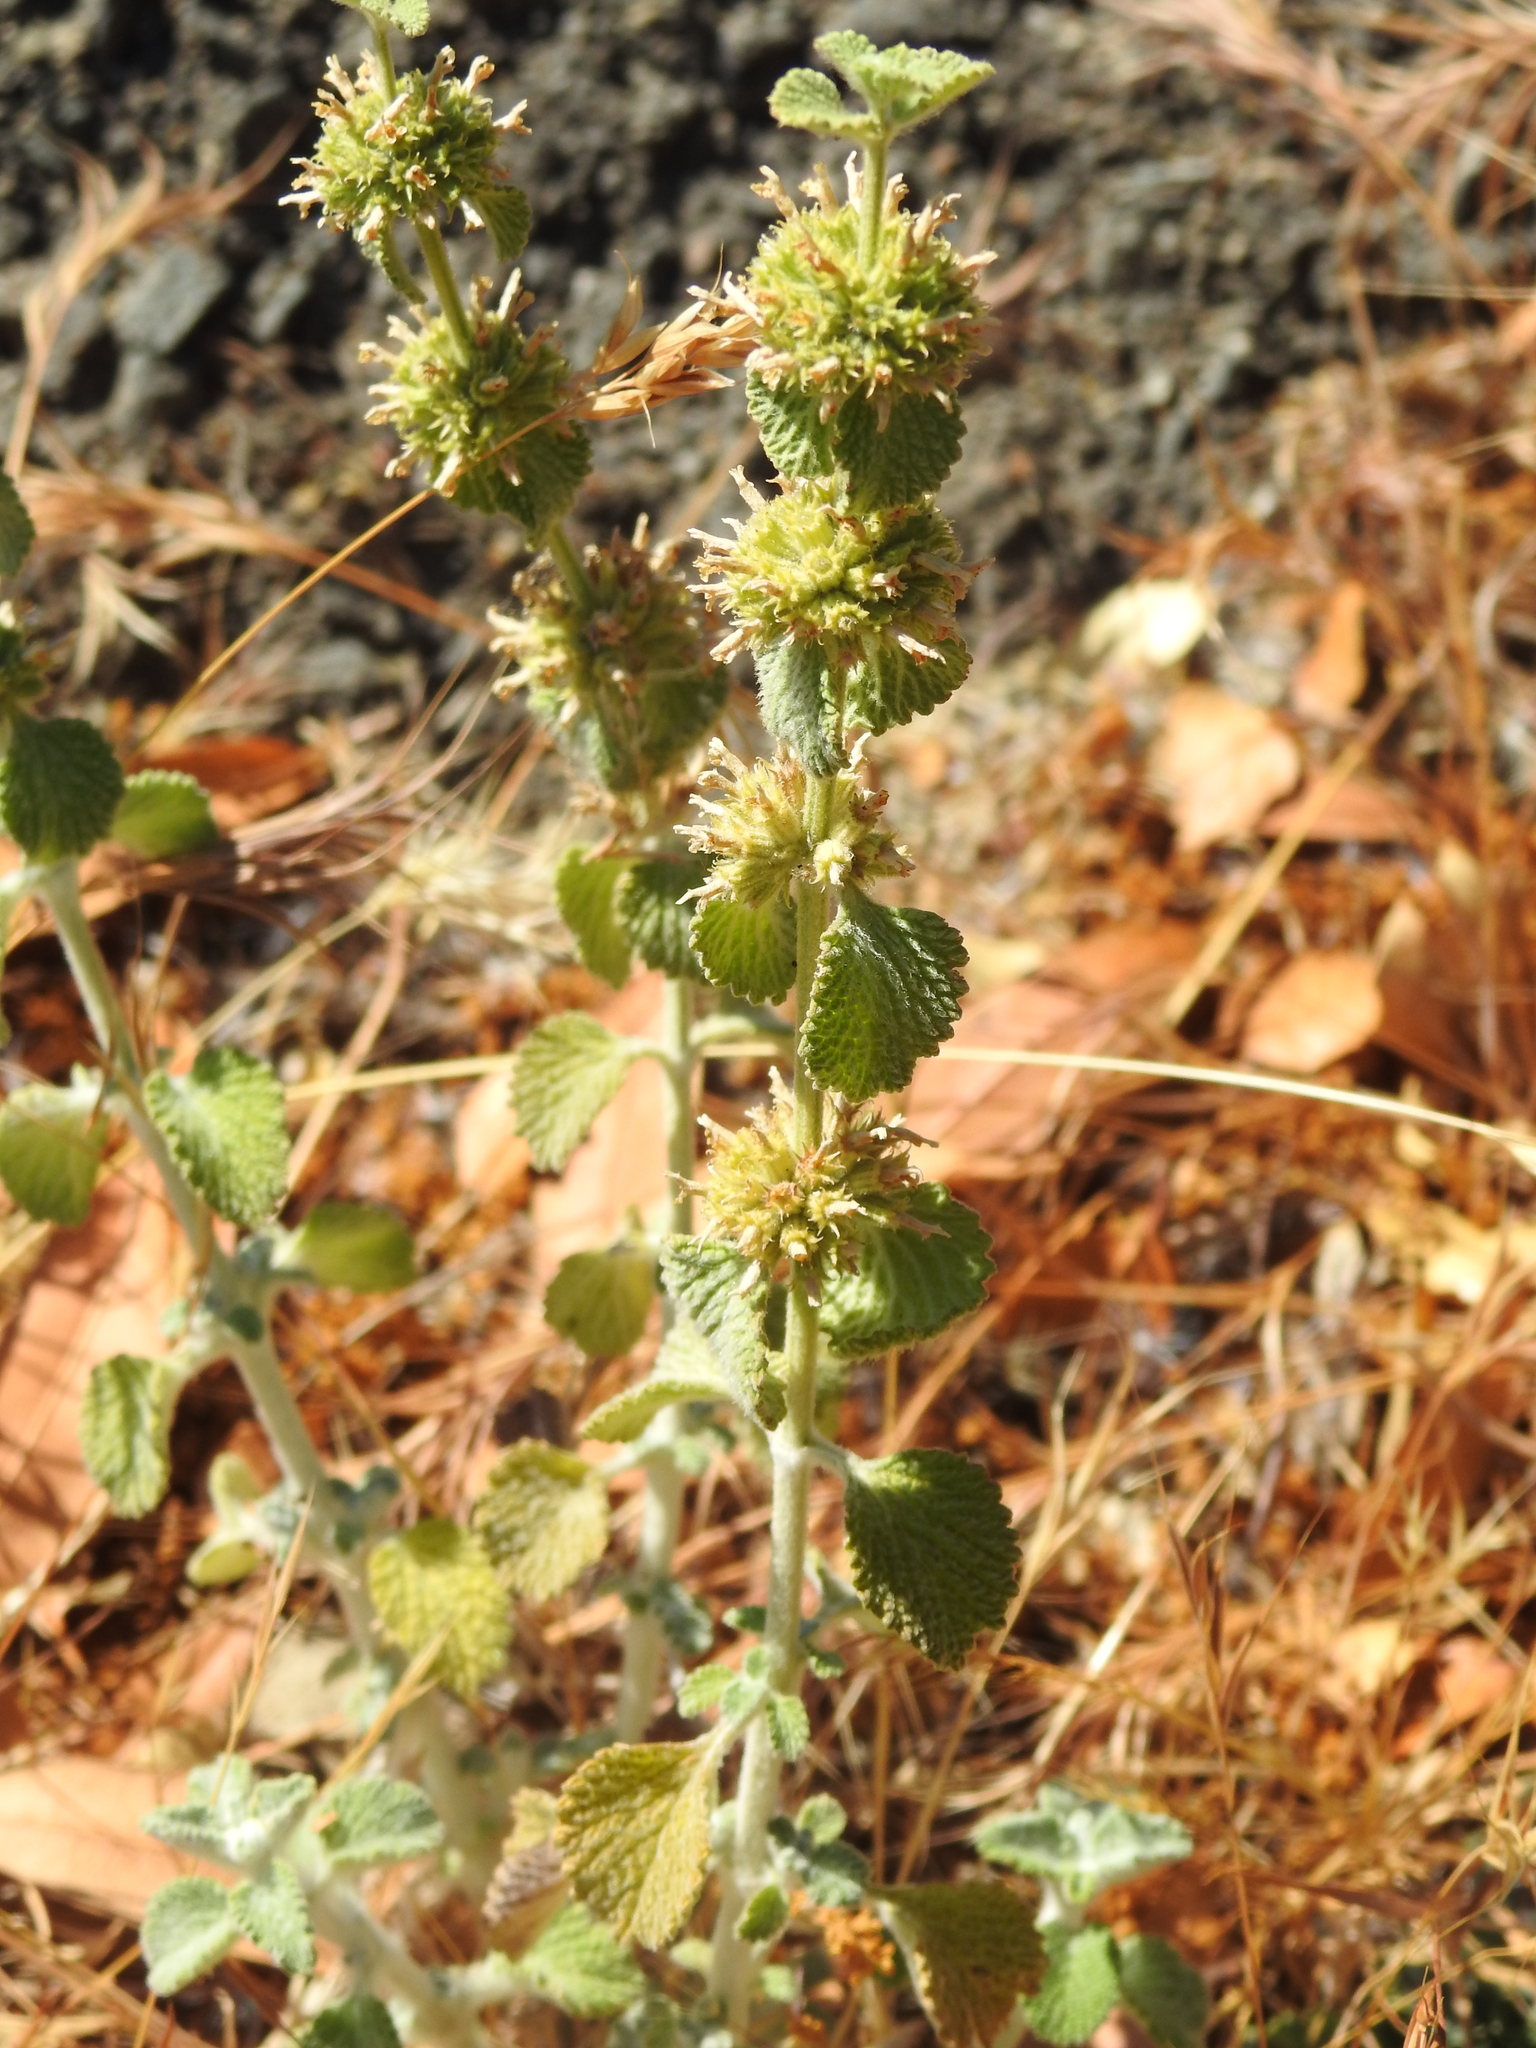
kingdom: Plantae
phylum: Tracheophyta
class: Magnoliopsida
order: Lamiales
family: Lamiaceae
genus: Marrubium
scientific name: Marrubium vulgare
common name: Horehound
